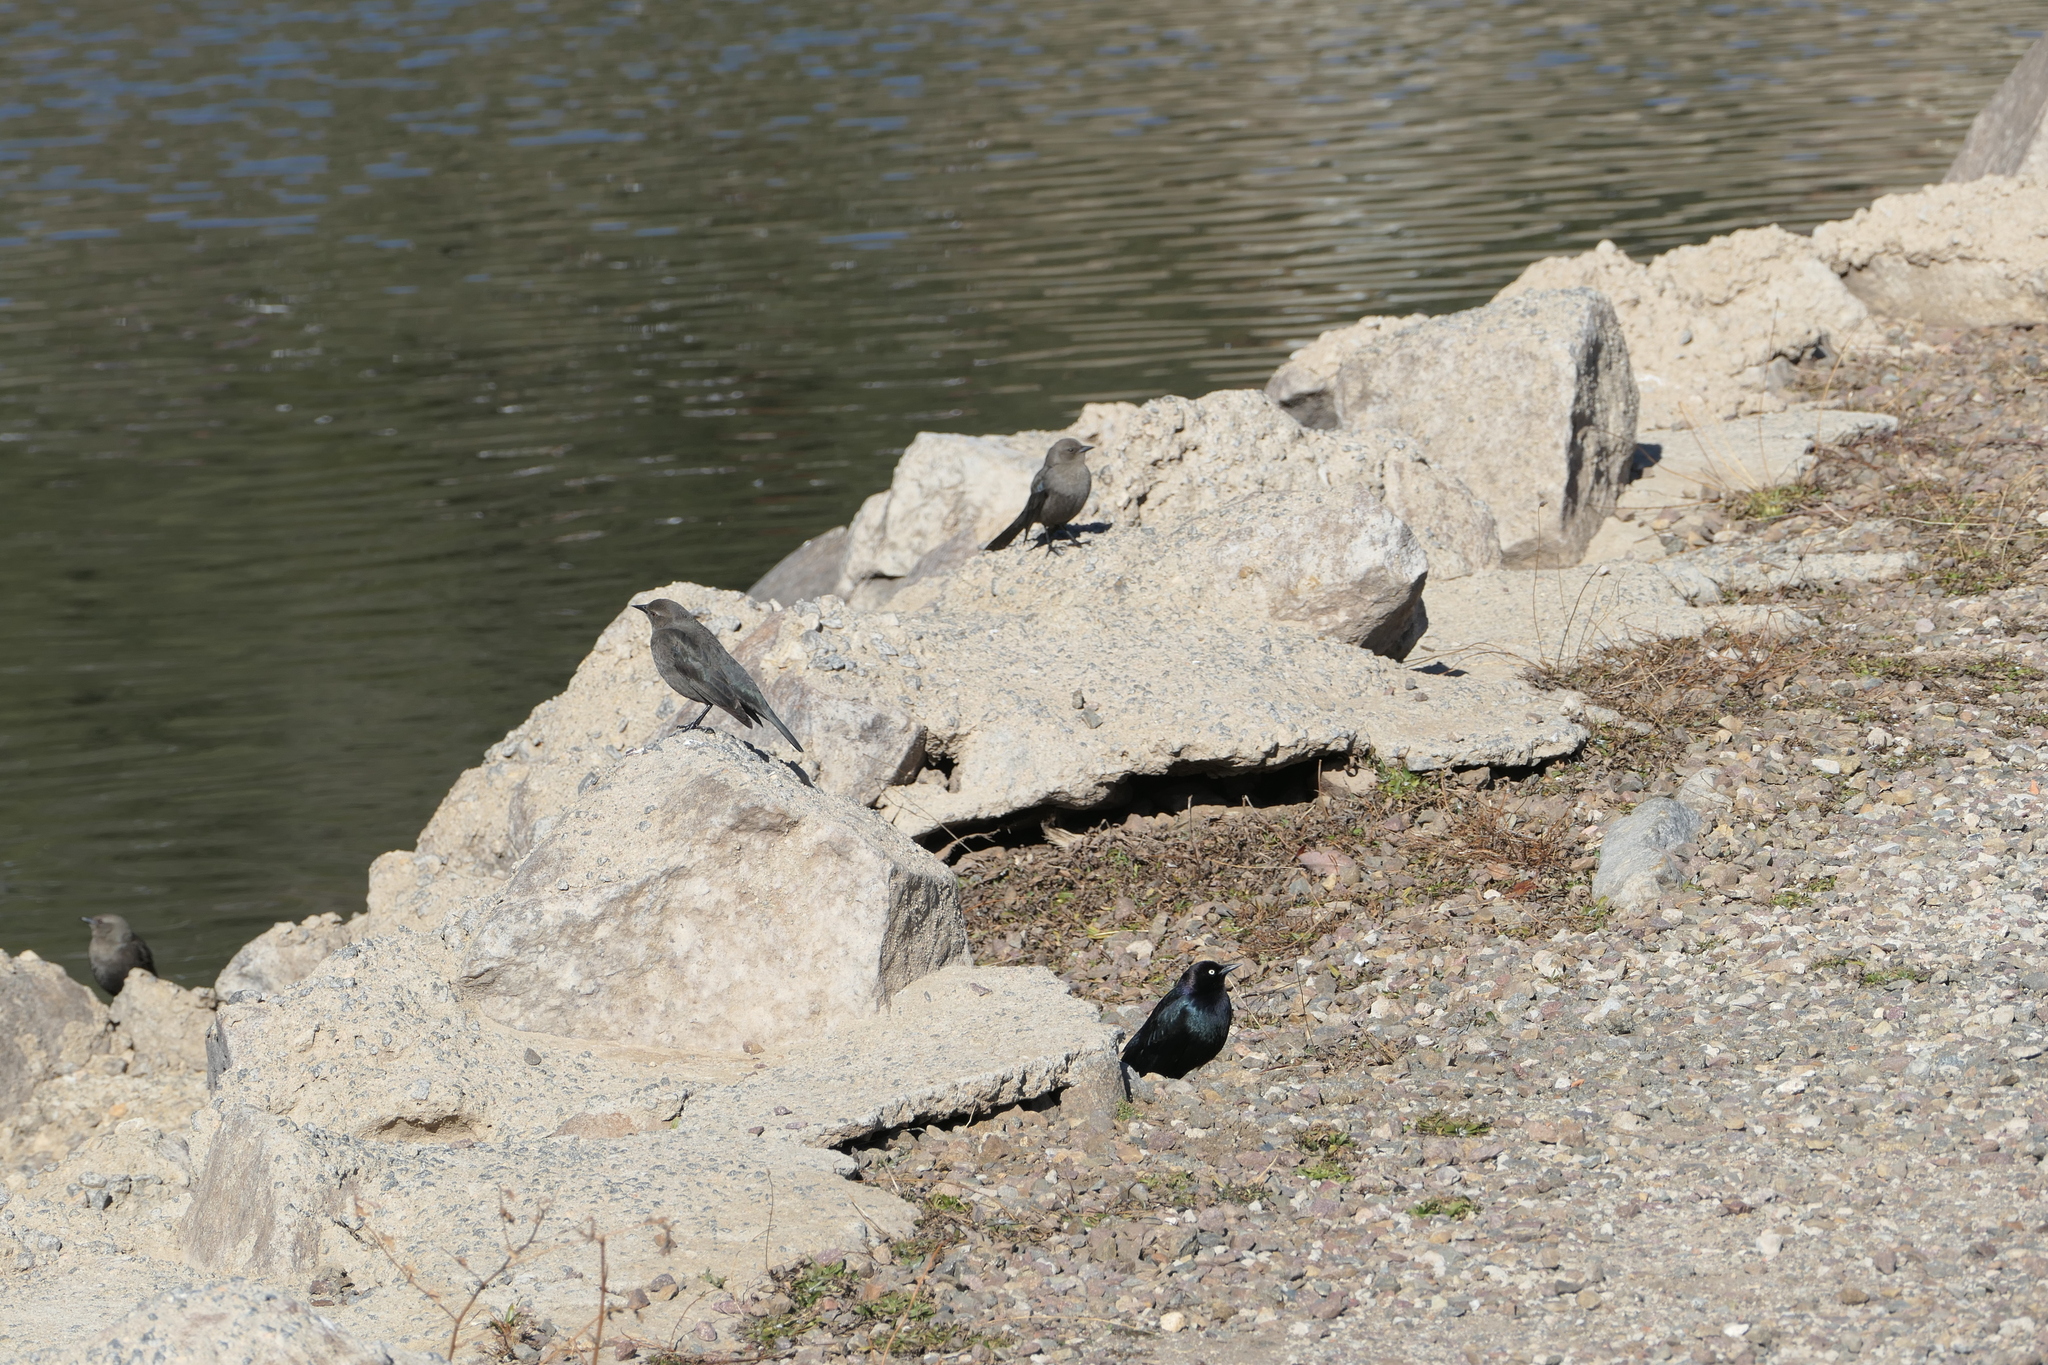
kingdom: Animalia
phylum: Chordata
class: Aves
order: Passeriformes
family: Icteridae
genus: Euphagus
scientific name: Euphagus cyanocephalus
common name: Brewer's blackbird
